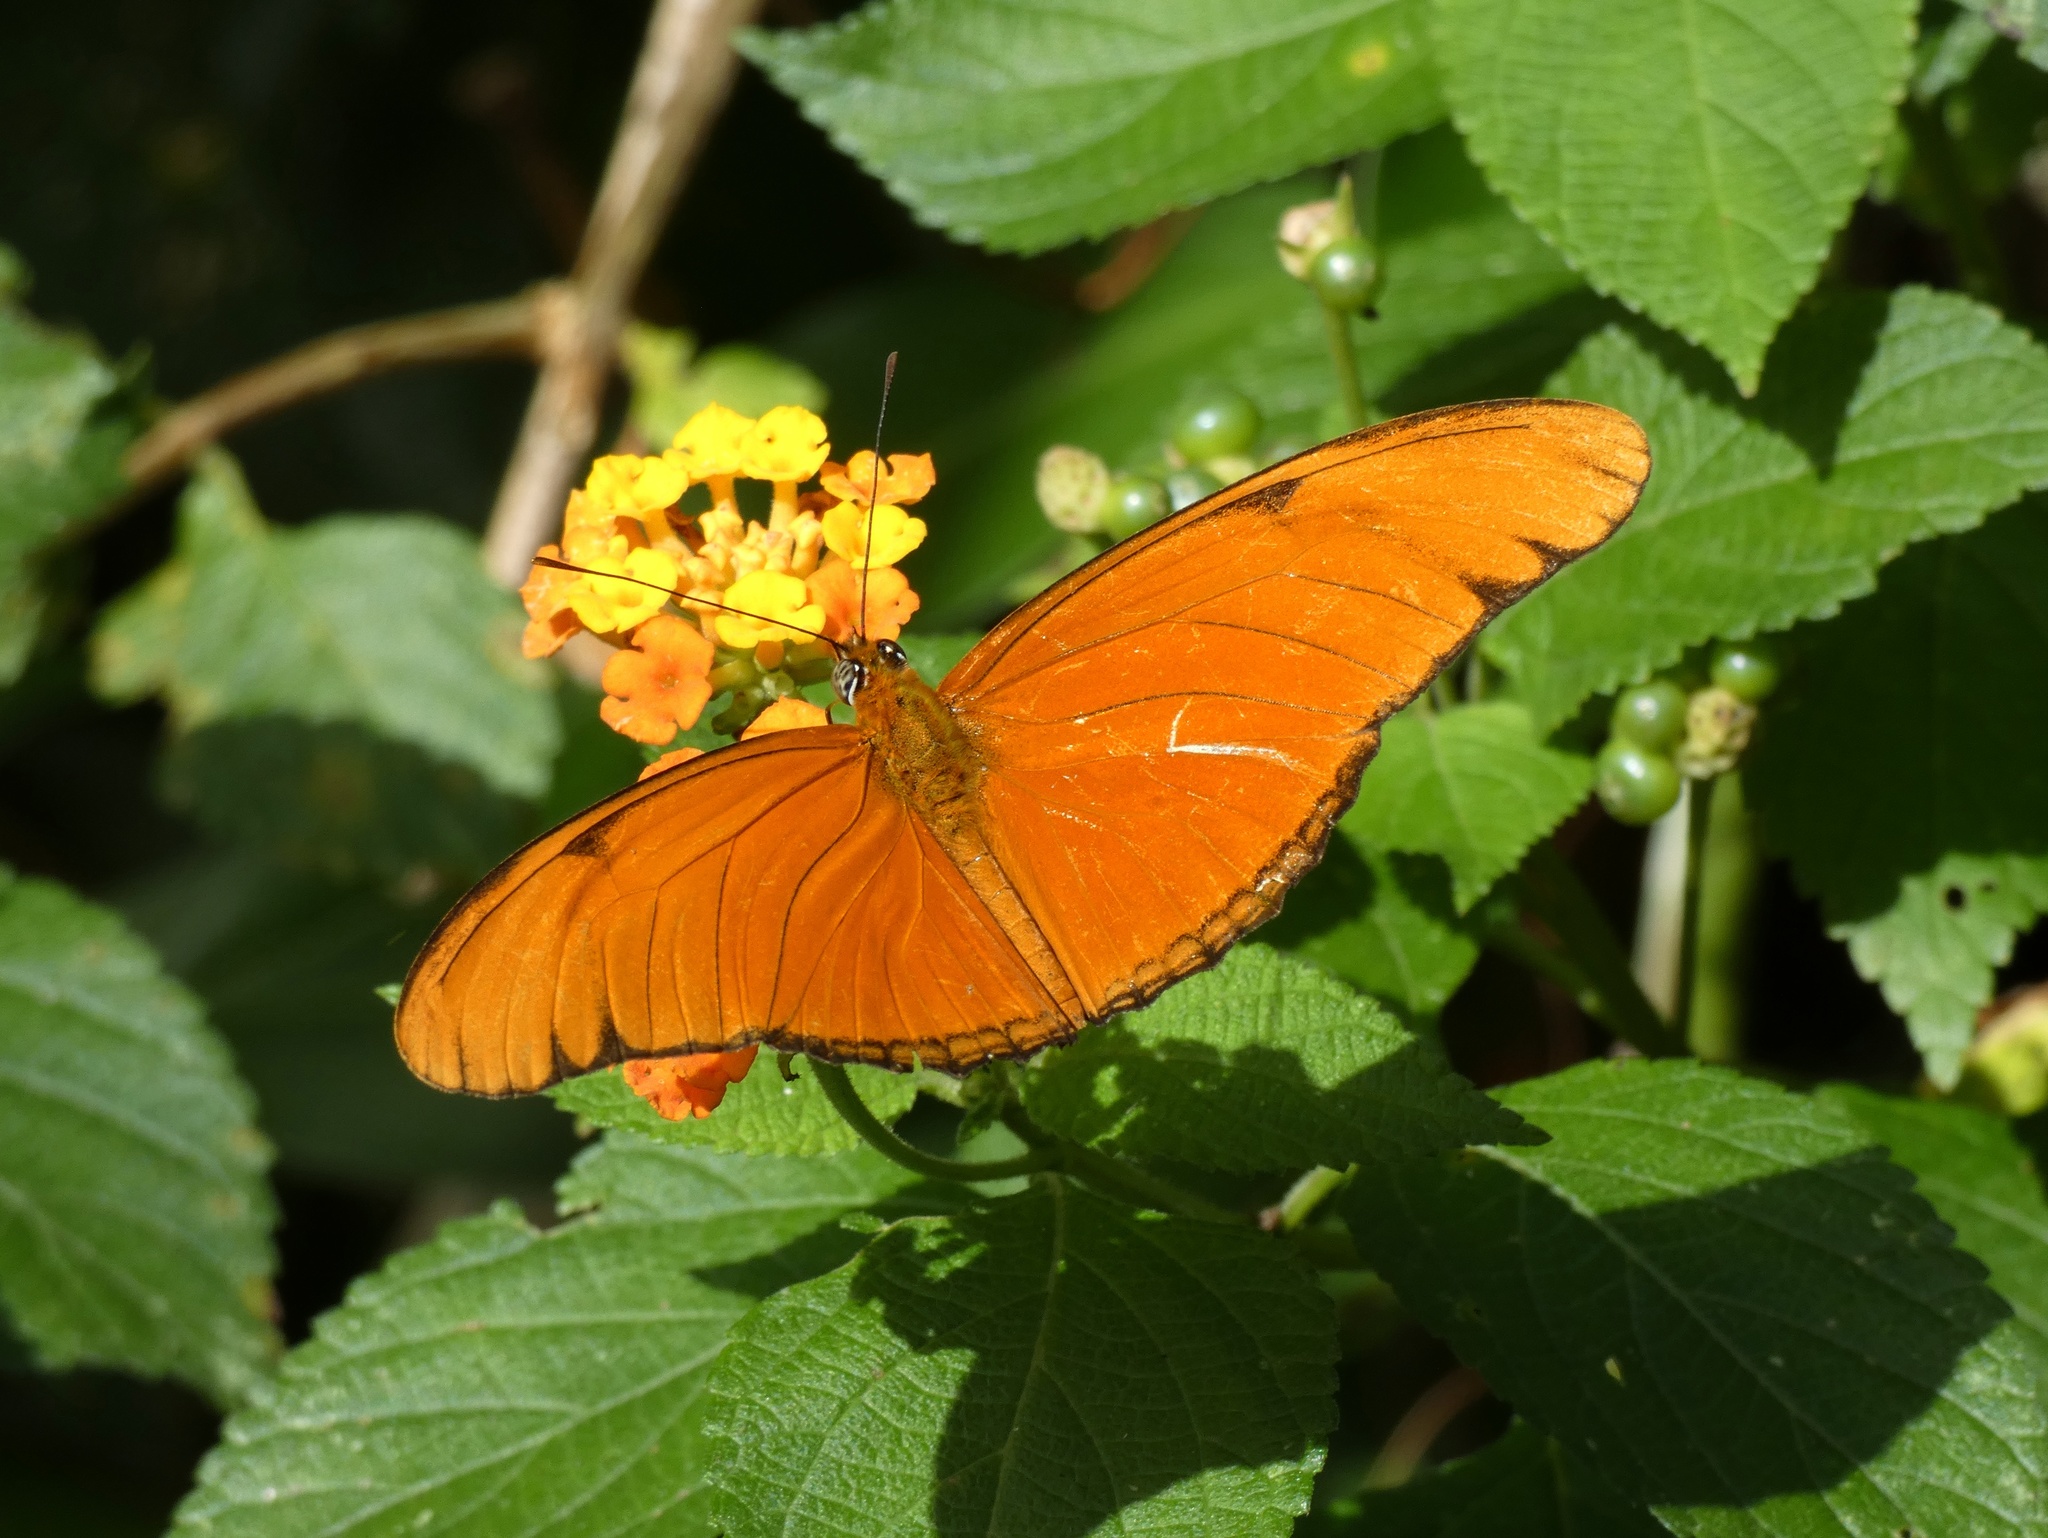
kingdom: Animalia
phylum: Arthropoda
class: Insecta
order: Lepidoptera
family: Nymphalidae
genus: Dryas
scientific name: Dryas iulia
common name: Flambeau
